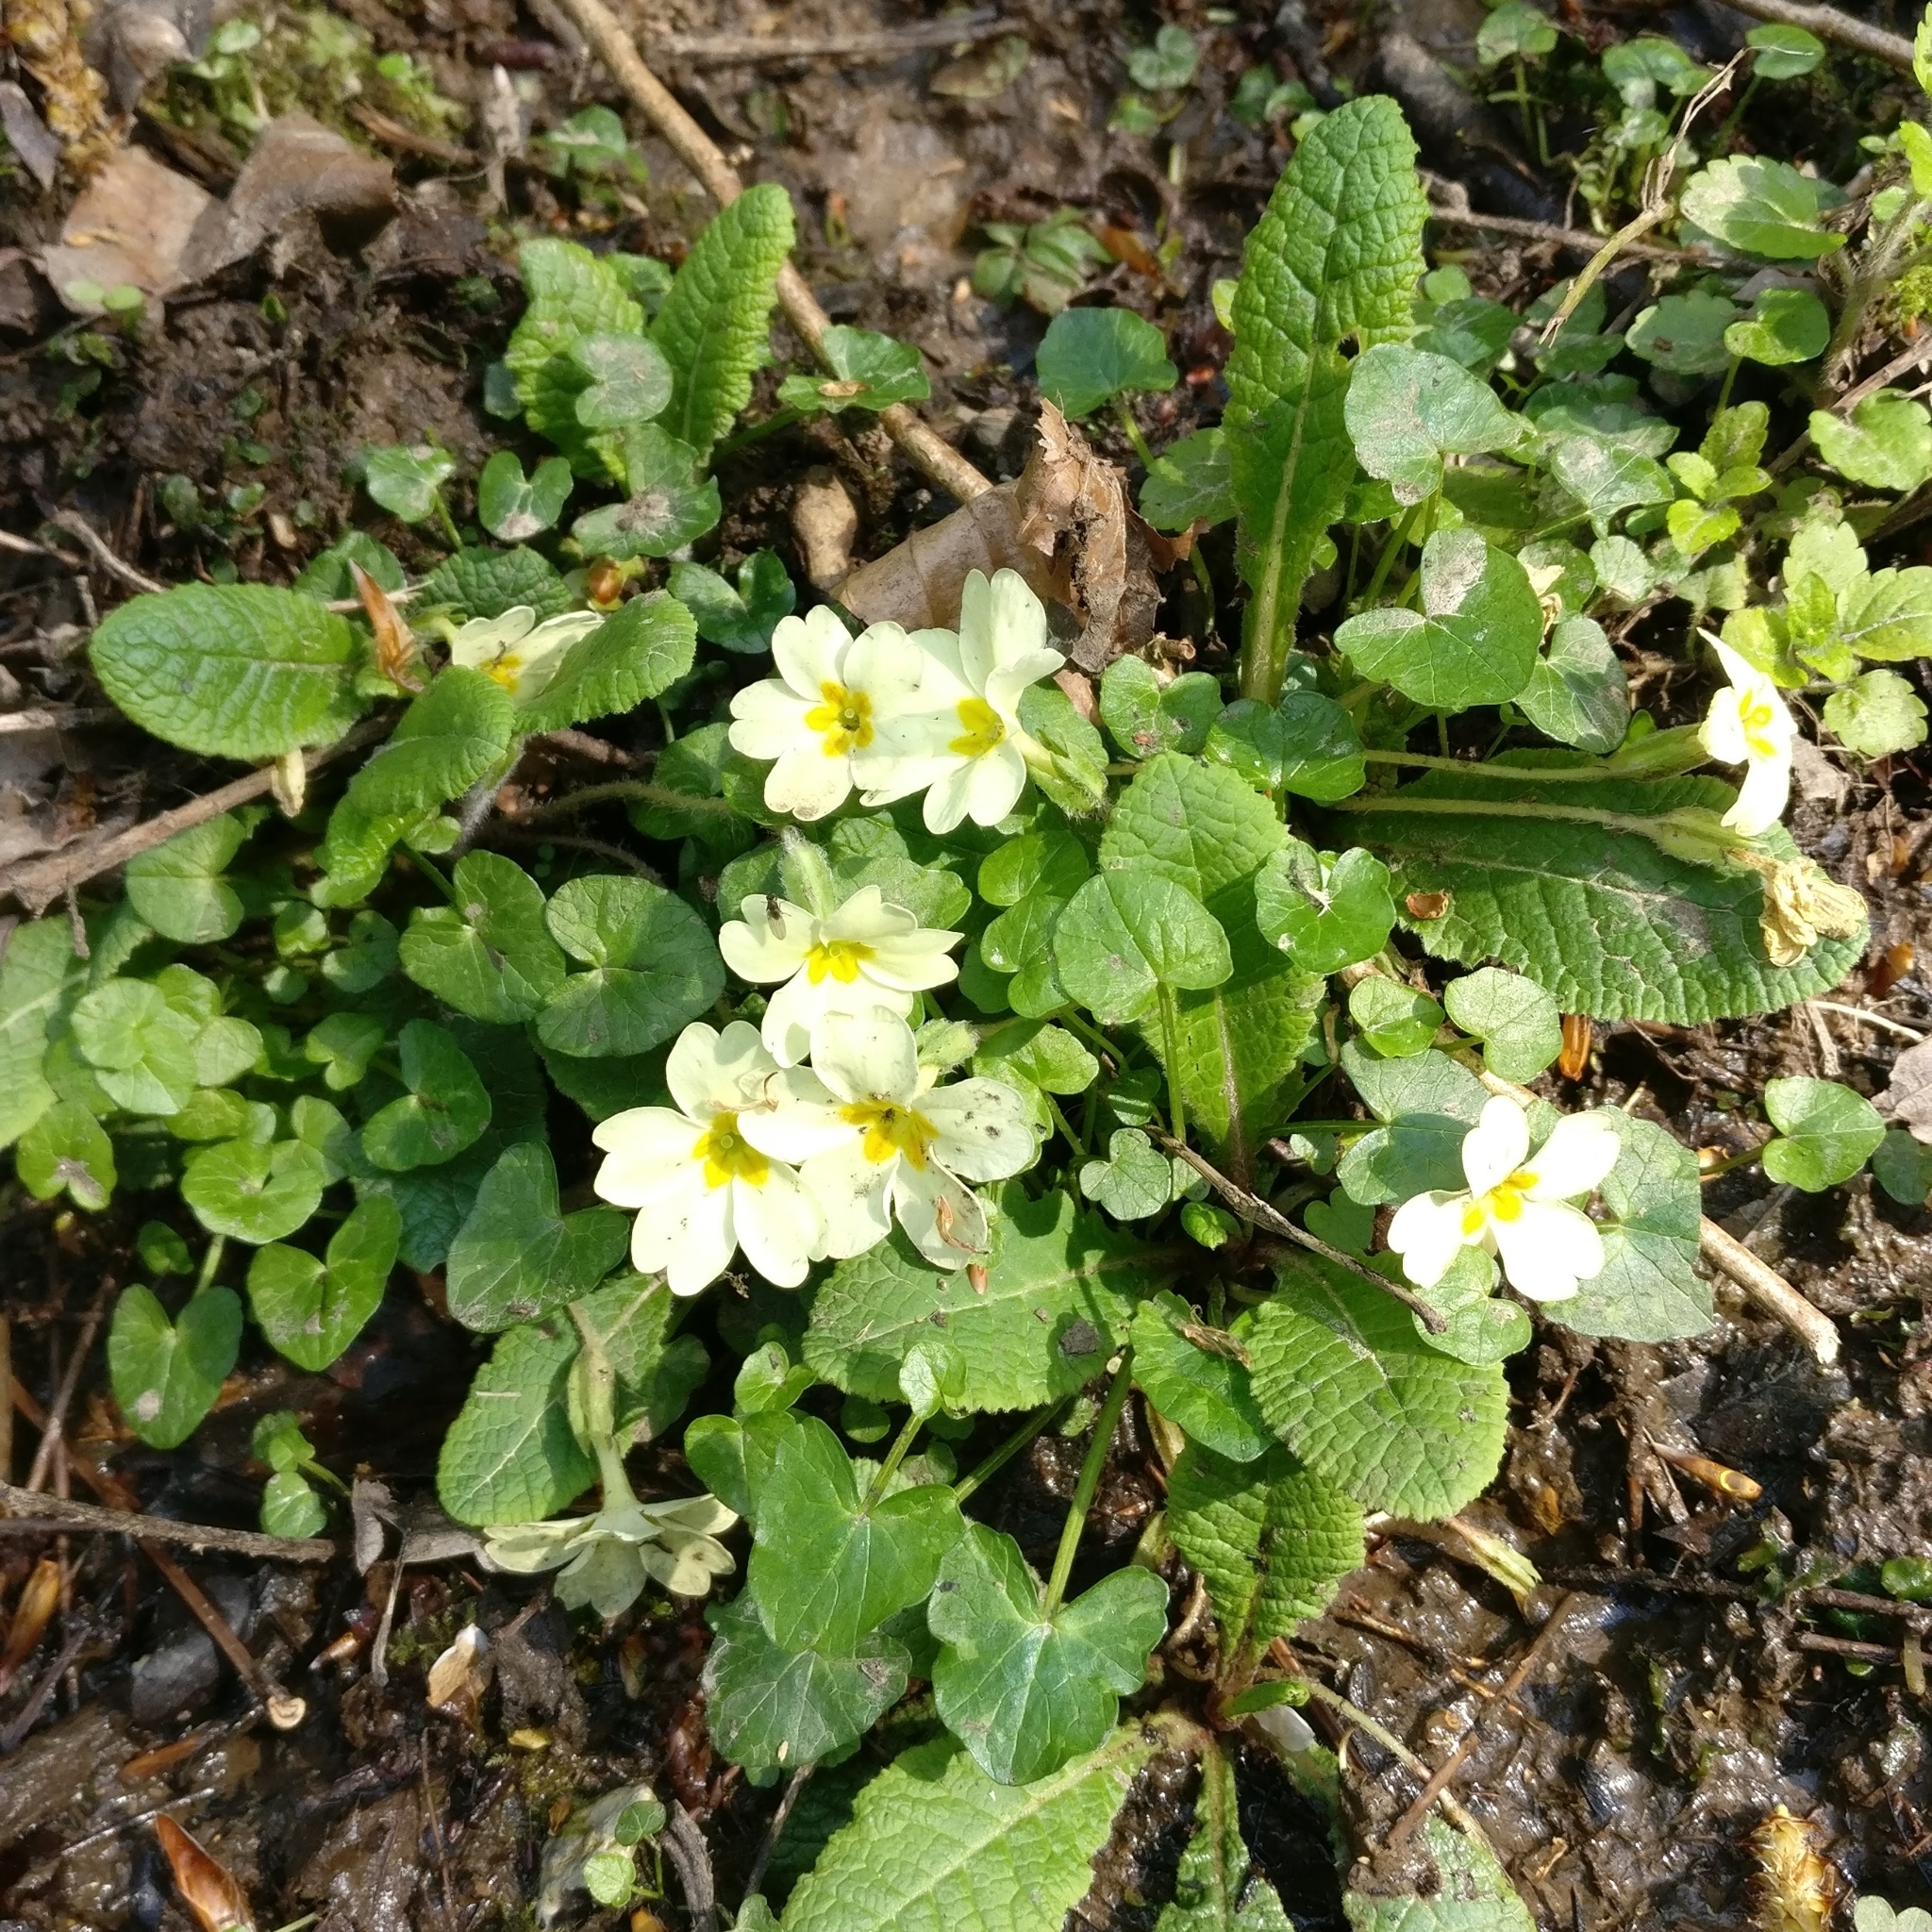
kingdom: Plantae
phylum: Tracheophyta
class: Magnoliopsida
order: Ericales
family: Primulaceae
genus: Primula
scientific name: Primula vulgaris
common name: Primrose
